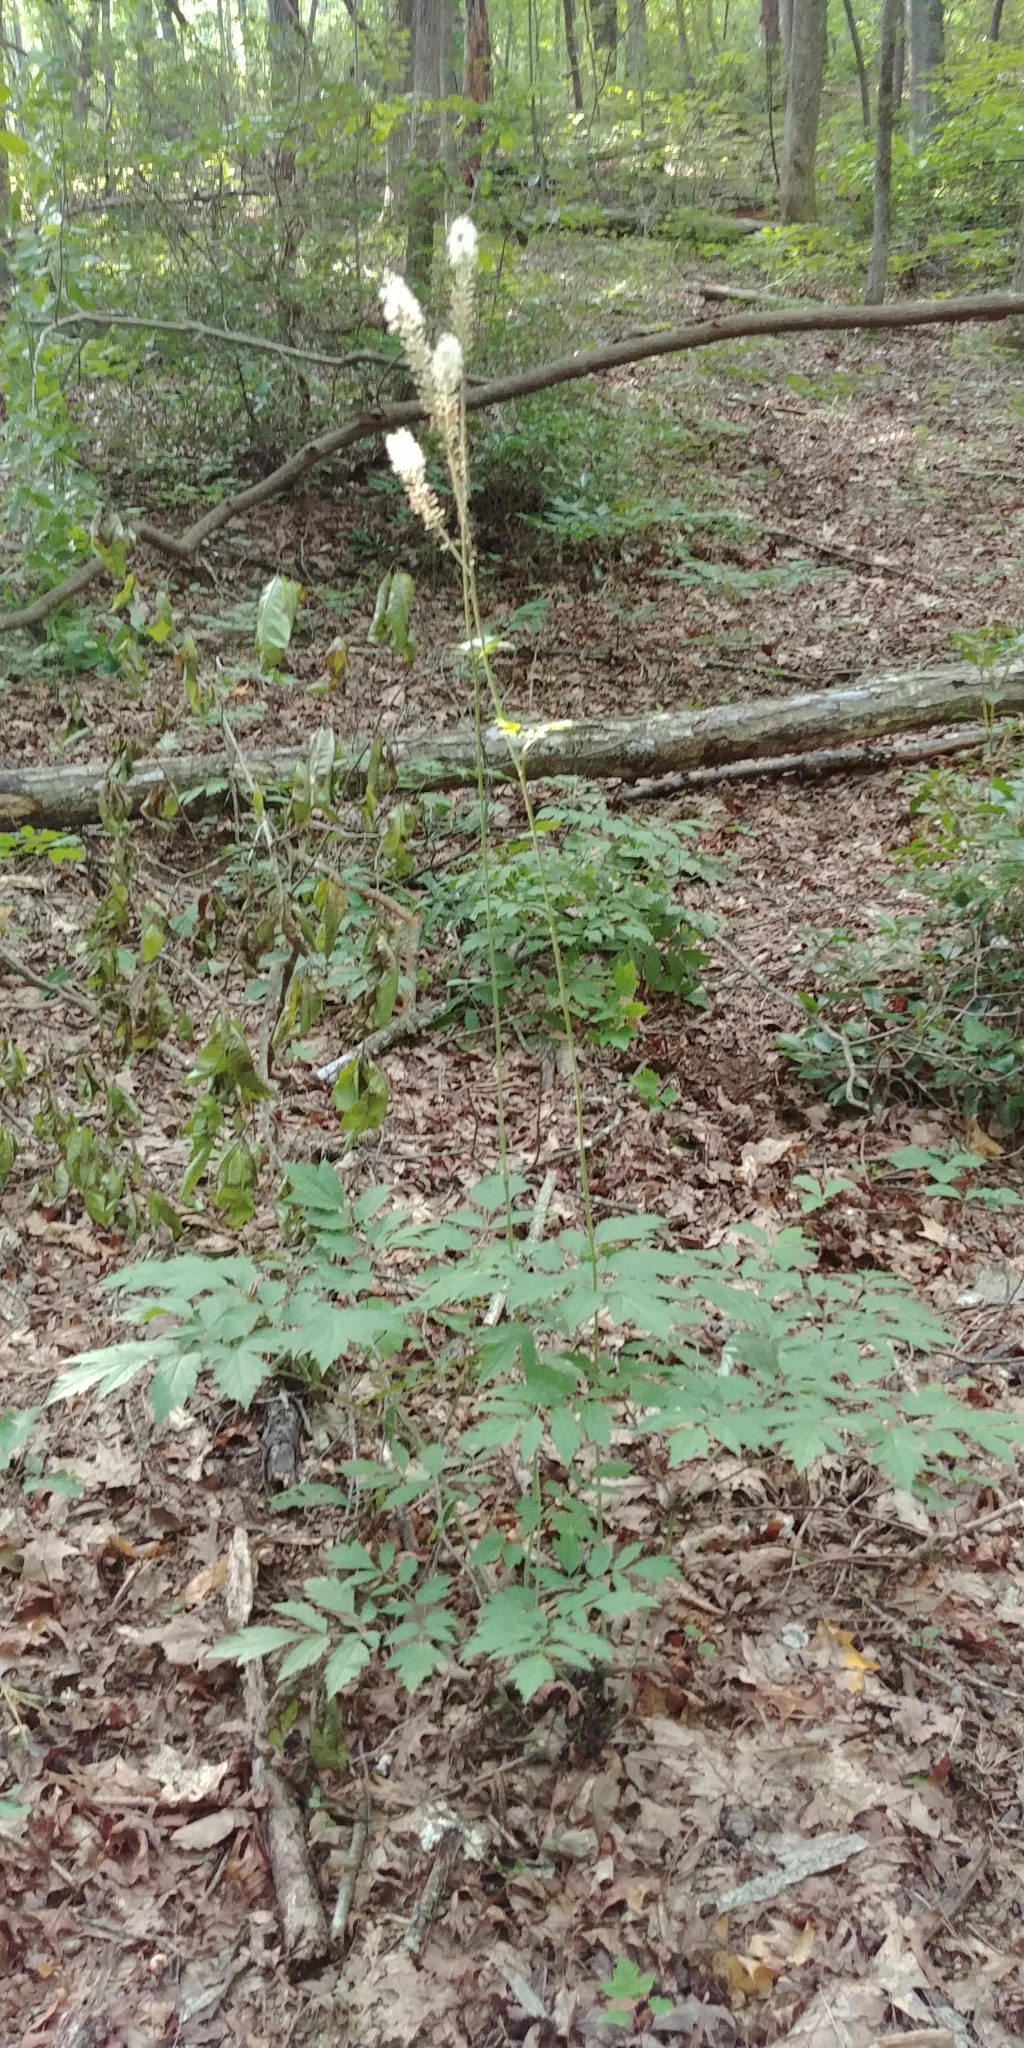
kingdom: Plantae
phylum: Tracheophyta
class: Magnoliopsida
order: Ranunculales
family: Ranunculaceae
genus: Actaea
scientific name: Actaea racemosa
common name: Black cohosh
